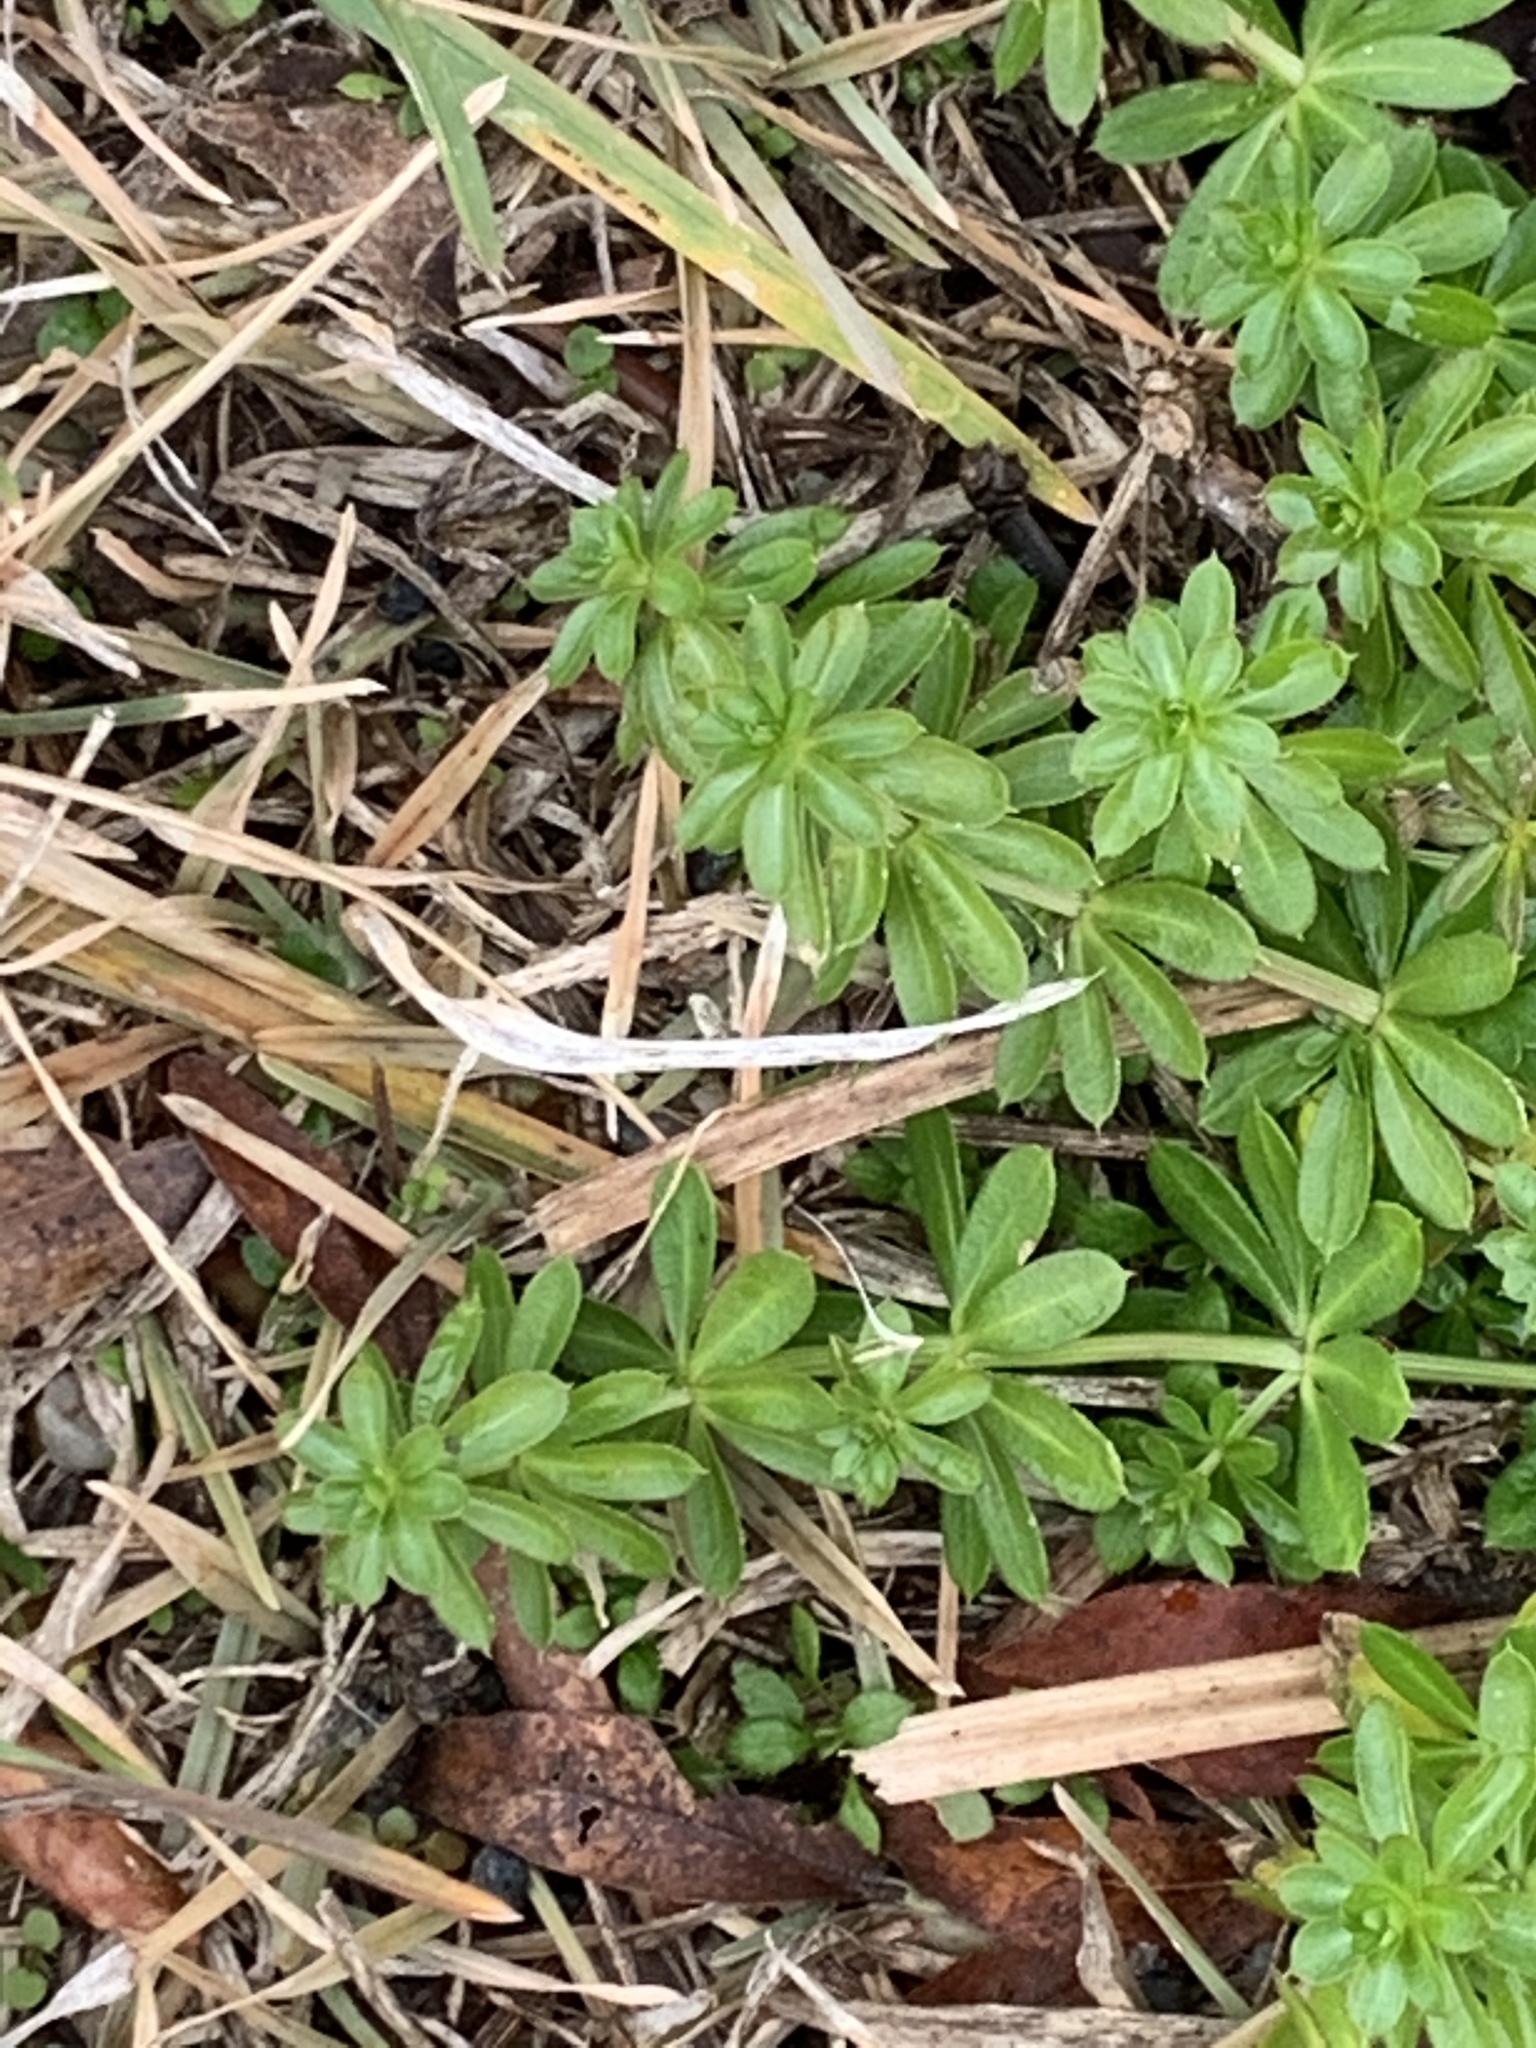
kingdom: Plantae
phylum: Tracheophyta
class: Magnoliopsida
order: Gentianales
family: Rubiaceae
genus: Galium
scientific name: Galium mollugo
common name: Hedge bedstraw
